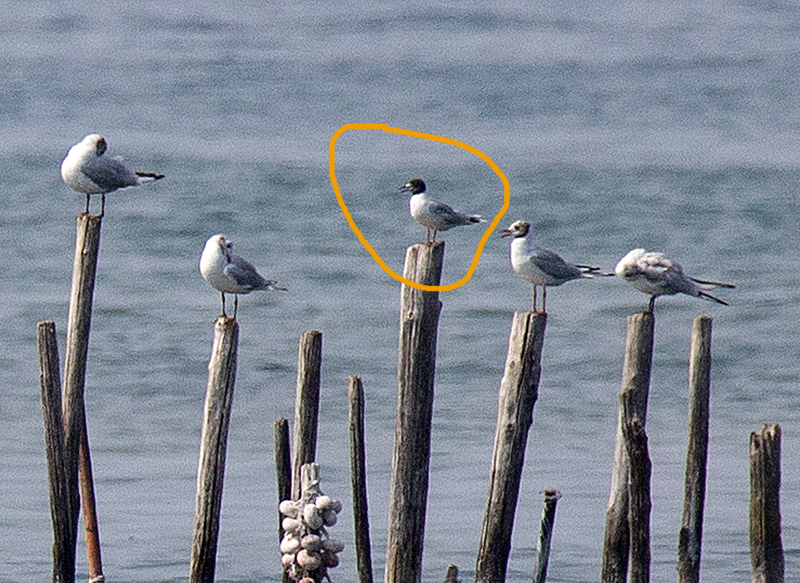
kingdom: Animalia
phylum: Chordata
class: Aves
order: Charadriiformes
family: Laridae
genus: Hydrocoloeus
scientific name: Hydrocoloeus minutus
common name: Little gull
